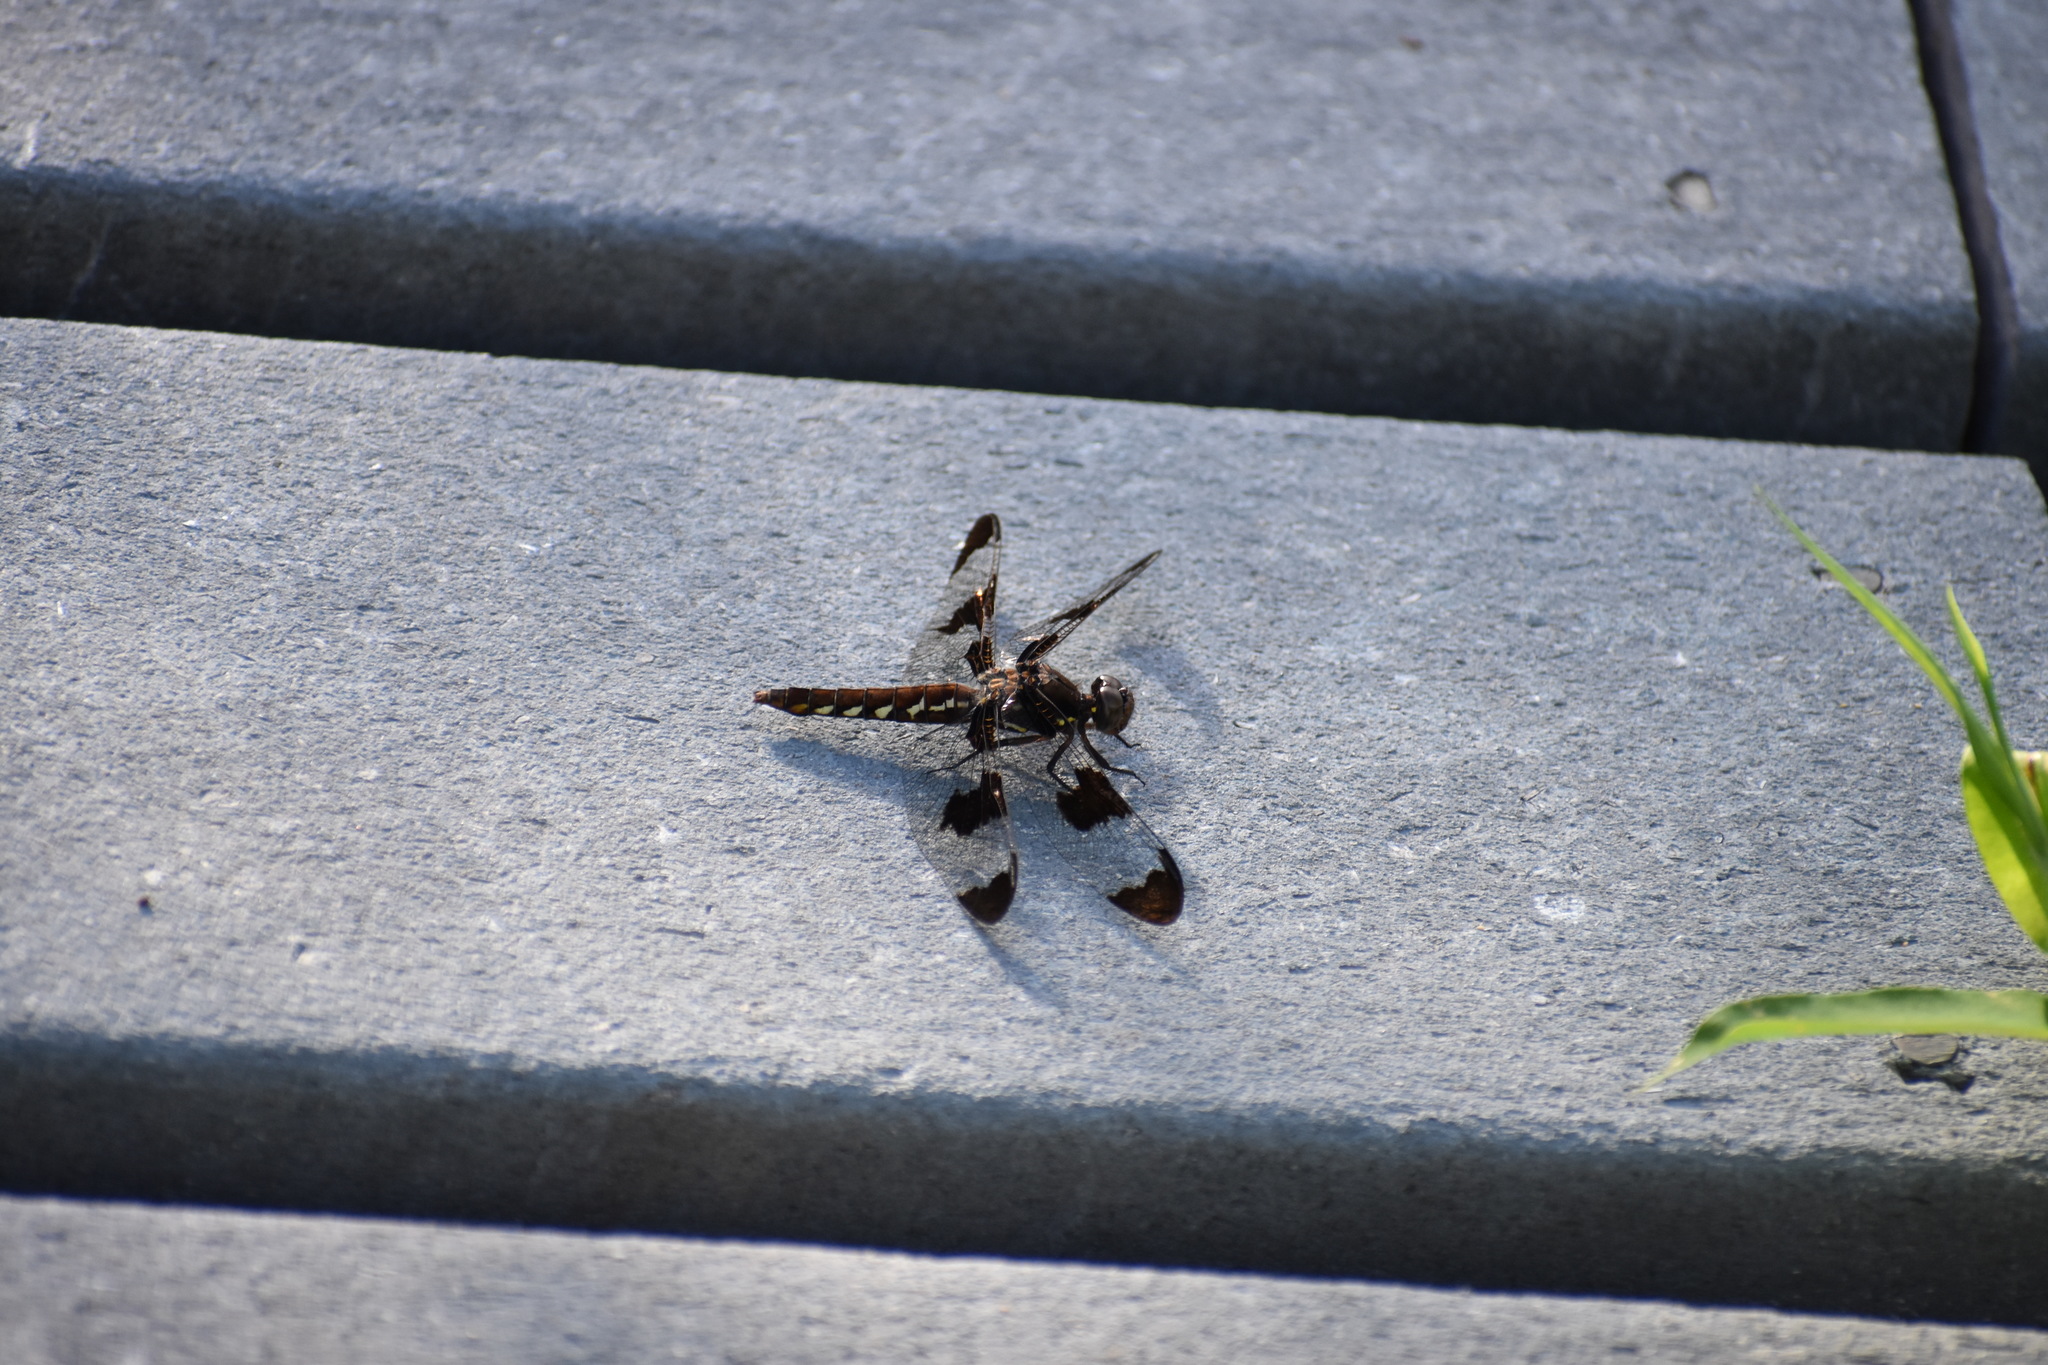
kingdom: Animalia
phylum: Arthropoda
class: Insecta
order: Odonata
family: Libellulidae
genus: Plathemis
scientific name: Plathemis lydia
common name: Common whitetail
